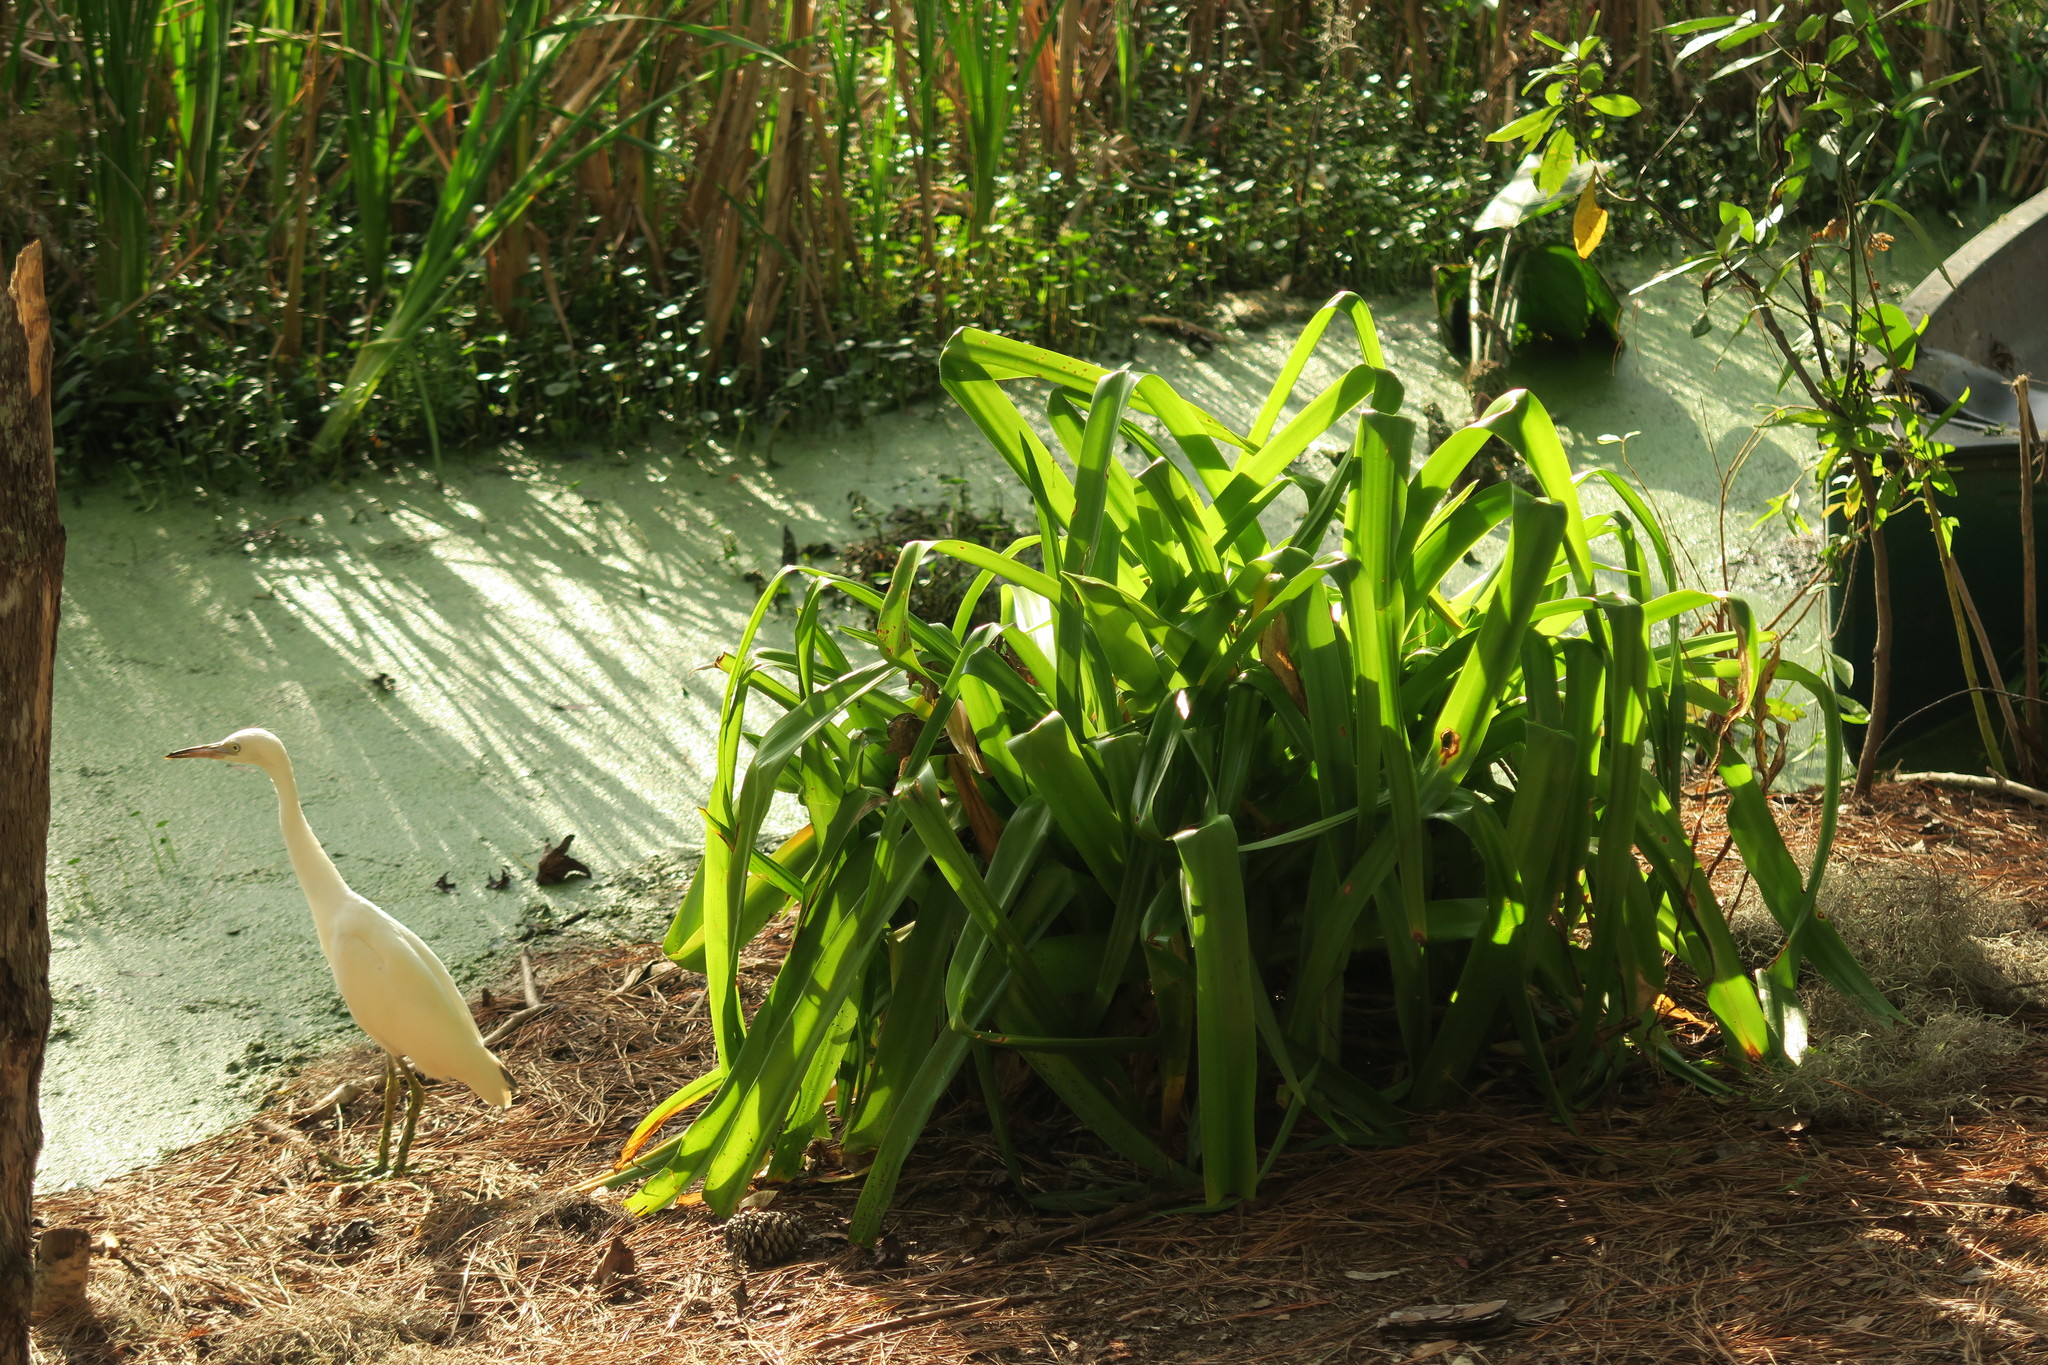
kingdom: Animalia
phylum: Chordata
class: Aves
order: Pelecaniformes
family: Ardeidae
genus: Egretta
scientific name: Egretta caerulea
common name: Little blue heron
